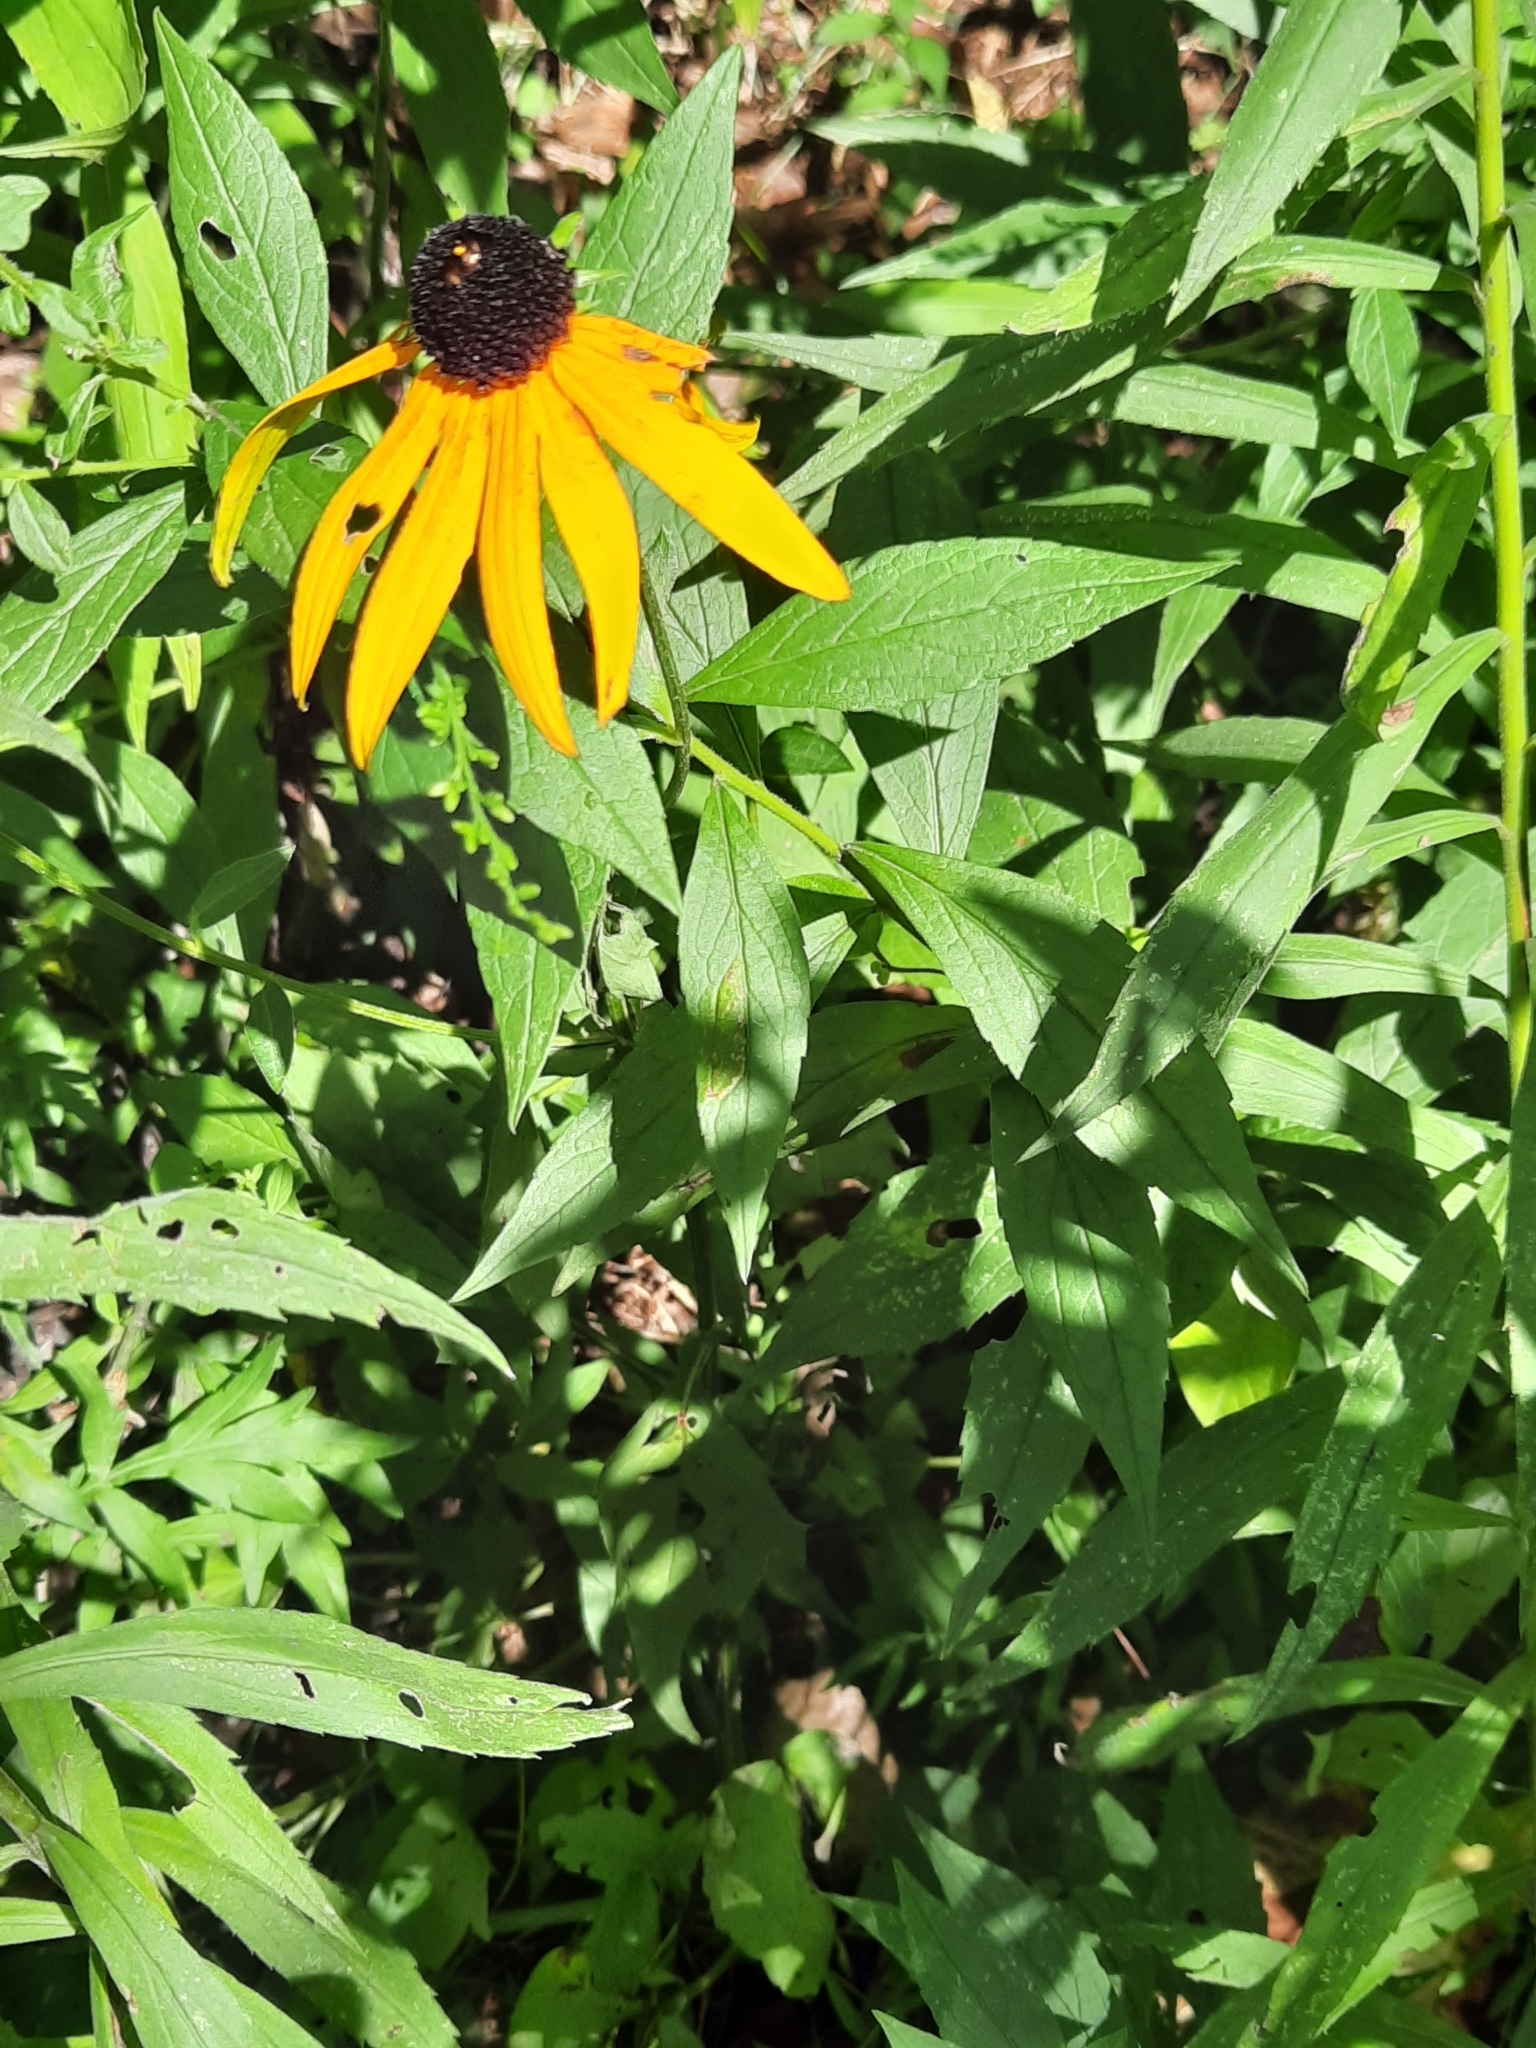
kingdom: Plantae
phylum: Tracheophyta
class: Magnoliopsida
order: Asterales
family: Asteraceae
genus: Rudbeckia
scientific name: Rudbeckia hirta
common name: Black-eyed-susan
